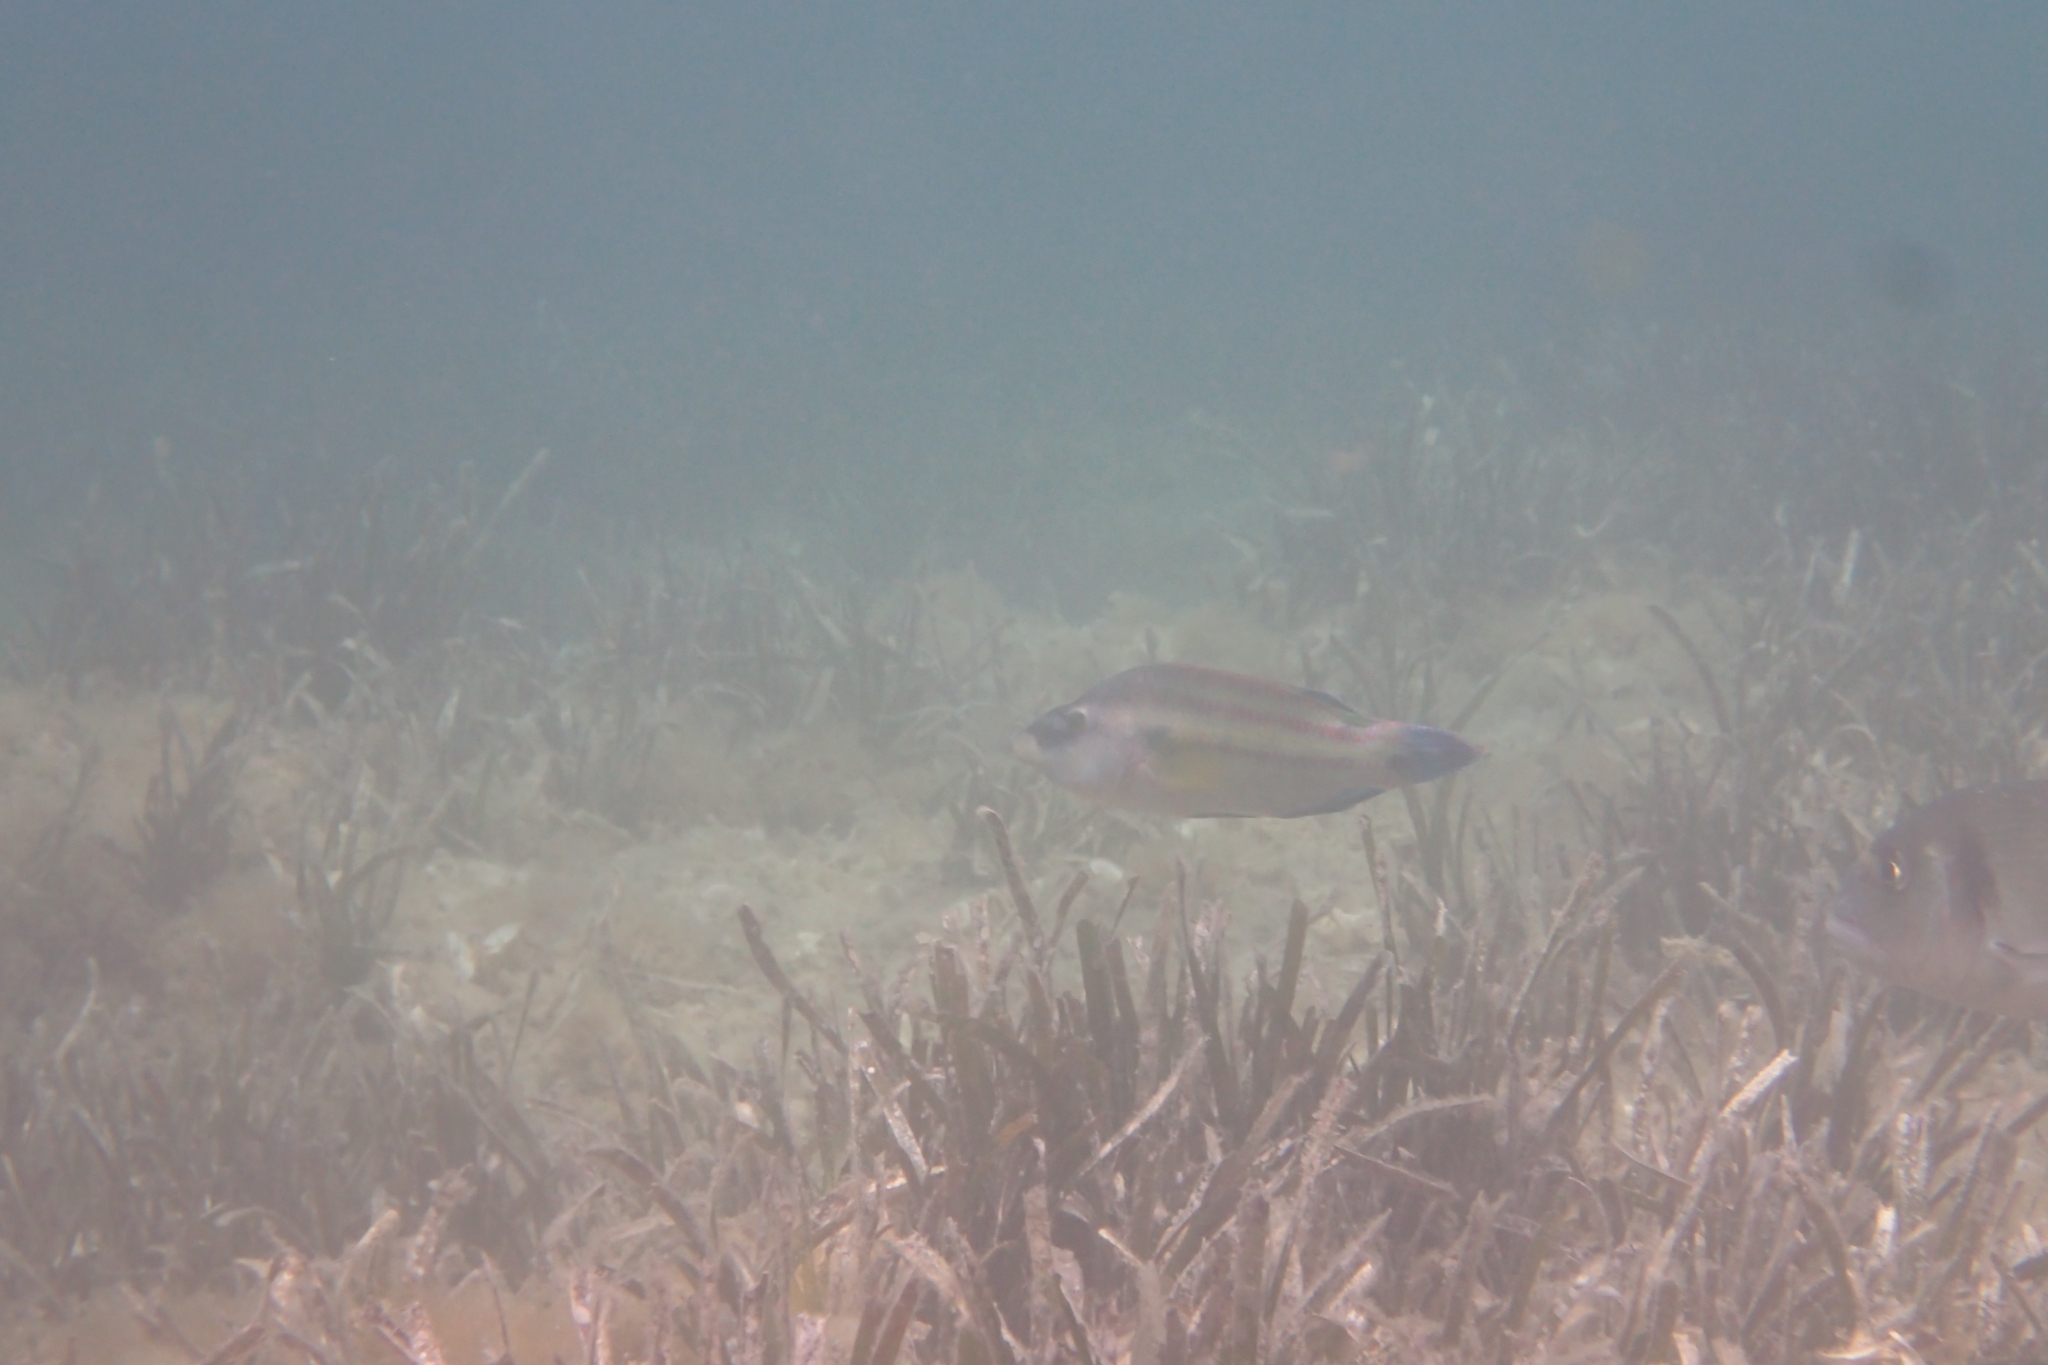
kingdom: Animalia
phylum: Chordata
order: Perciformes
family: Labridae
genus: Symphodus
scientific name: Symphodus tinca
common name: Peacock wrasse
